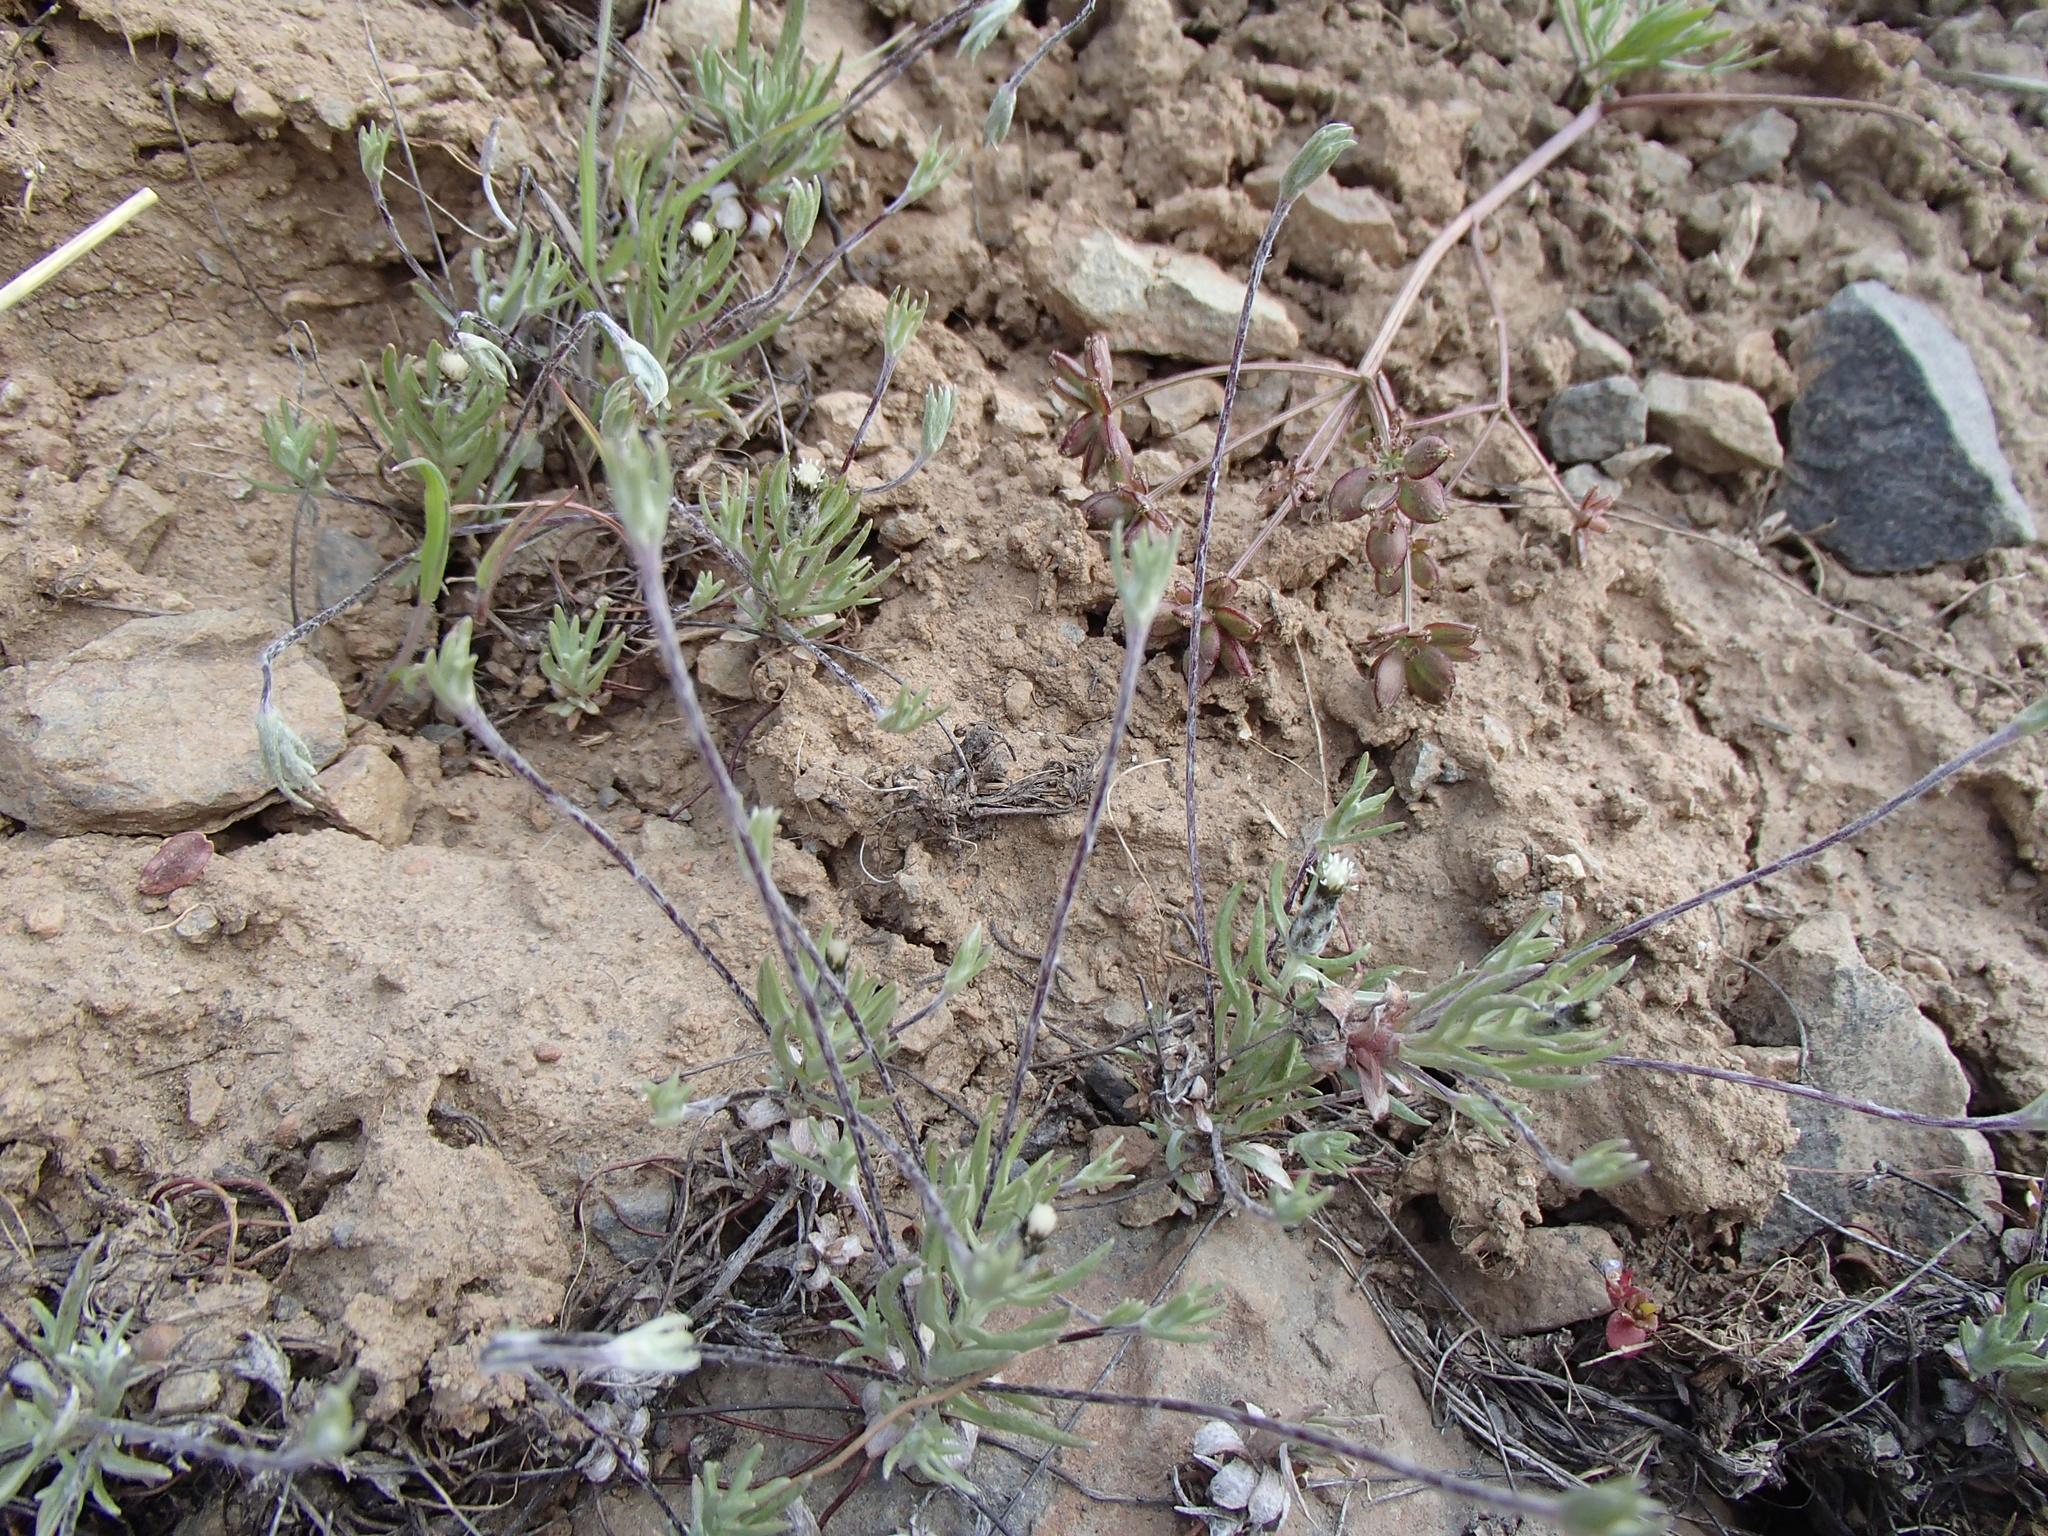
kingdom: Plantae
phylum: Tracheophyta
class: Magnoliopsida
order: Asterales
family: Asteraceae
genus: Antennaria
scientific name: Antennaria flagellaris
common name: Whip pussytoes
